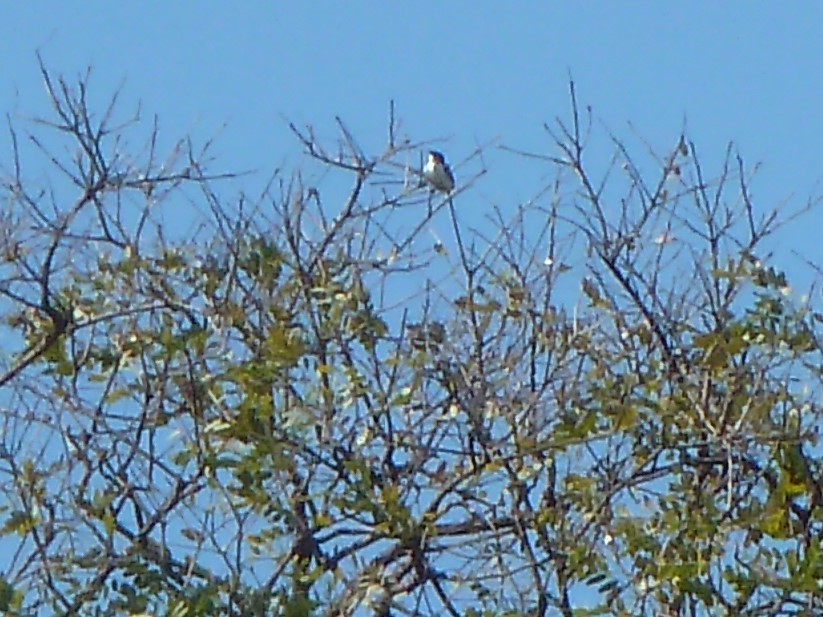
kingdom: Animalia
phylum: Chordata
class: Aves
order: Passeriformes
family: Tyrannidae
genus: Tyrannus
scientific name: Tyrannus savana
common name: Fork-tailed flycatcher
